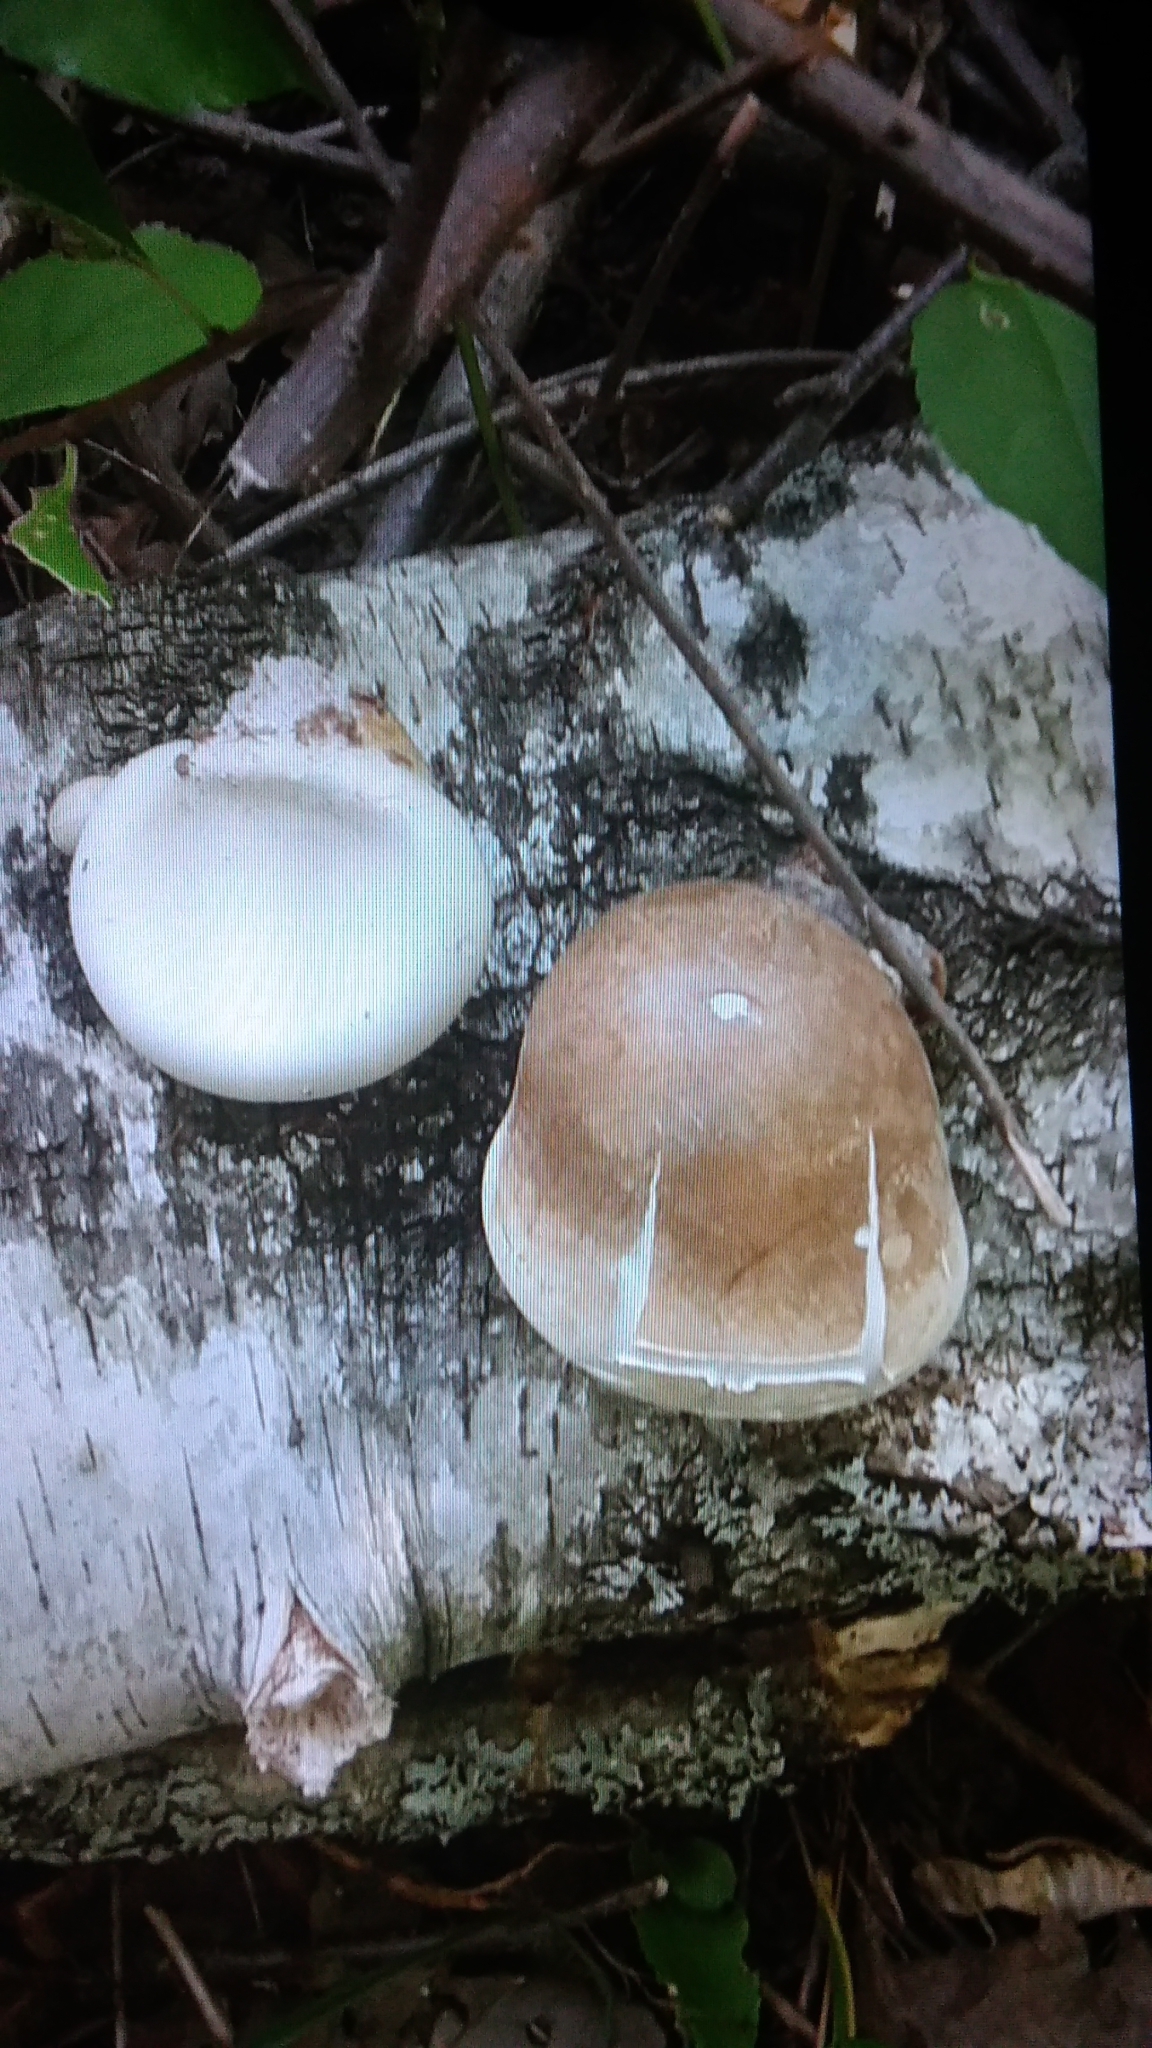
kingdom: Fungi
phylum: Basidiomycota
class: Agaricomycetes
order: Polyporales
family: Fomitopsidaceae
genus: Fomitopsis
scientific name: Fomitopsis betulina
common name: Birch polypore
